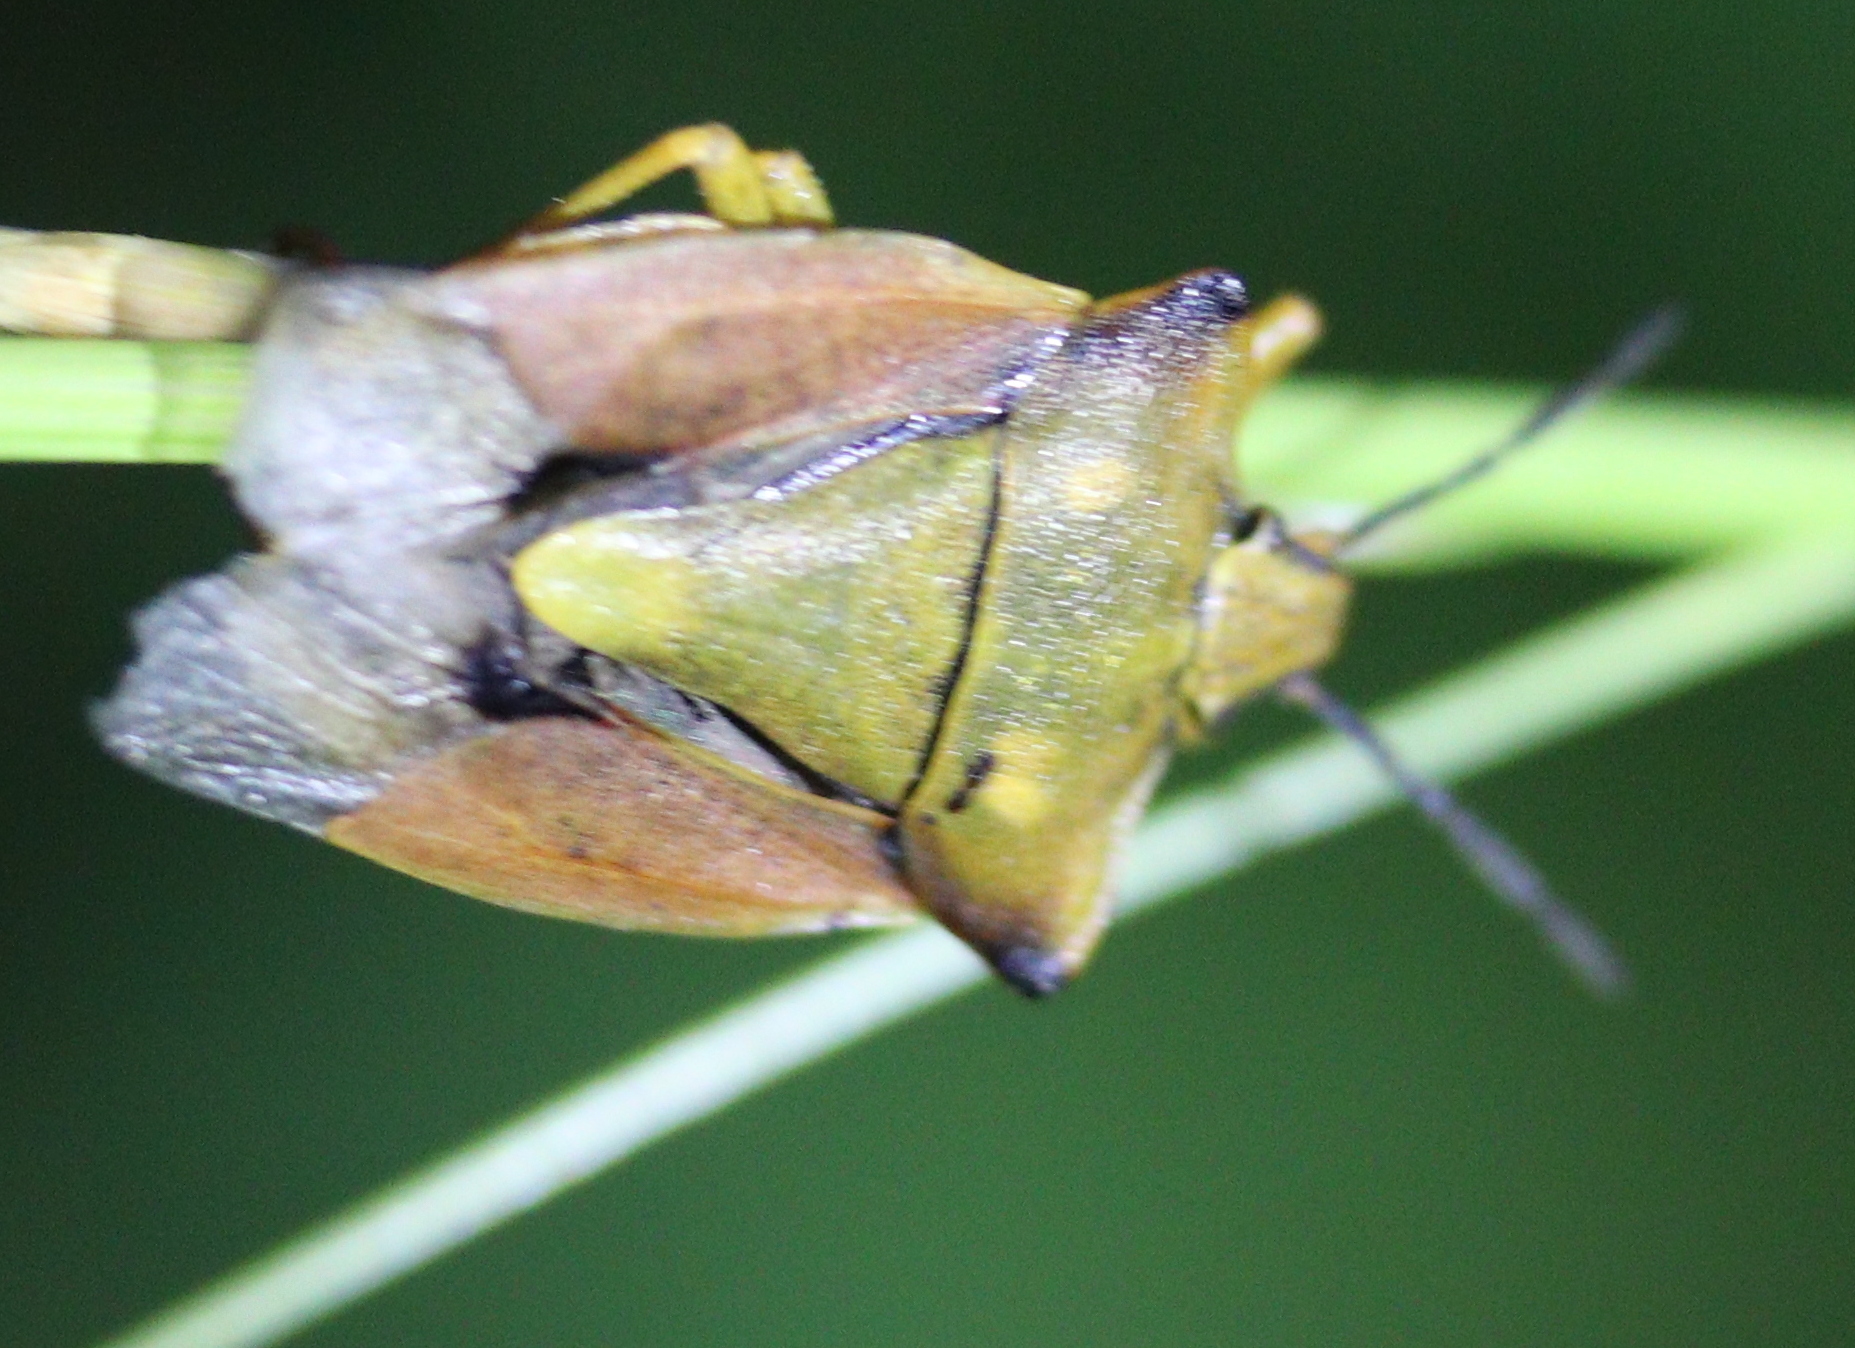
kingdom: Animalia
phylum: Arthropoda
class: Insecta
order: Hemiptera
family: Pentatomidae
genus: Carpocoris
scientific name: Carpocoris fuscispinus
